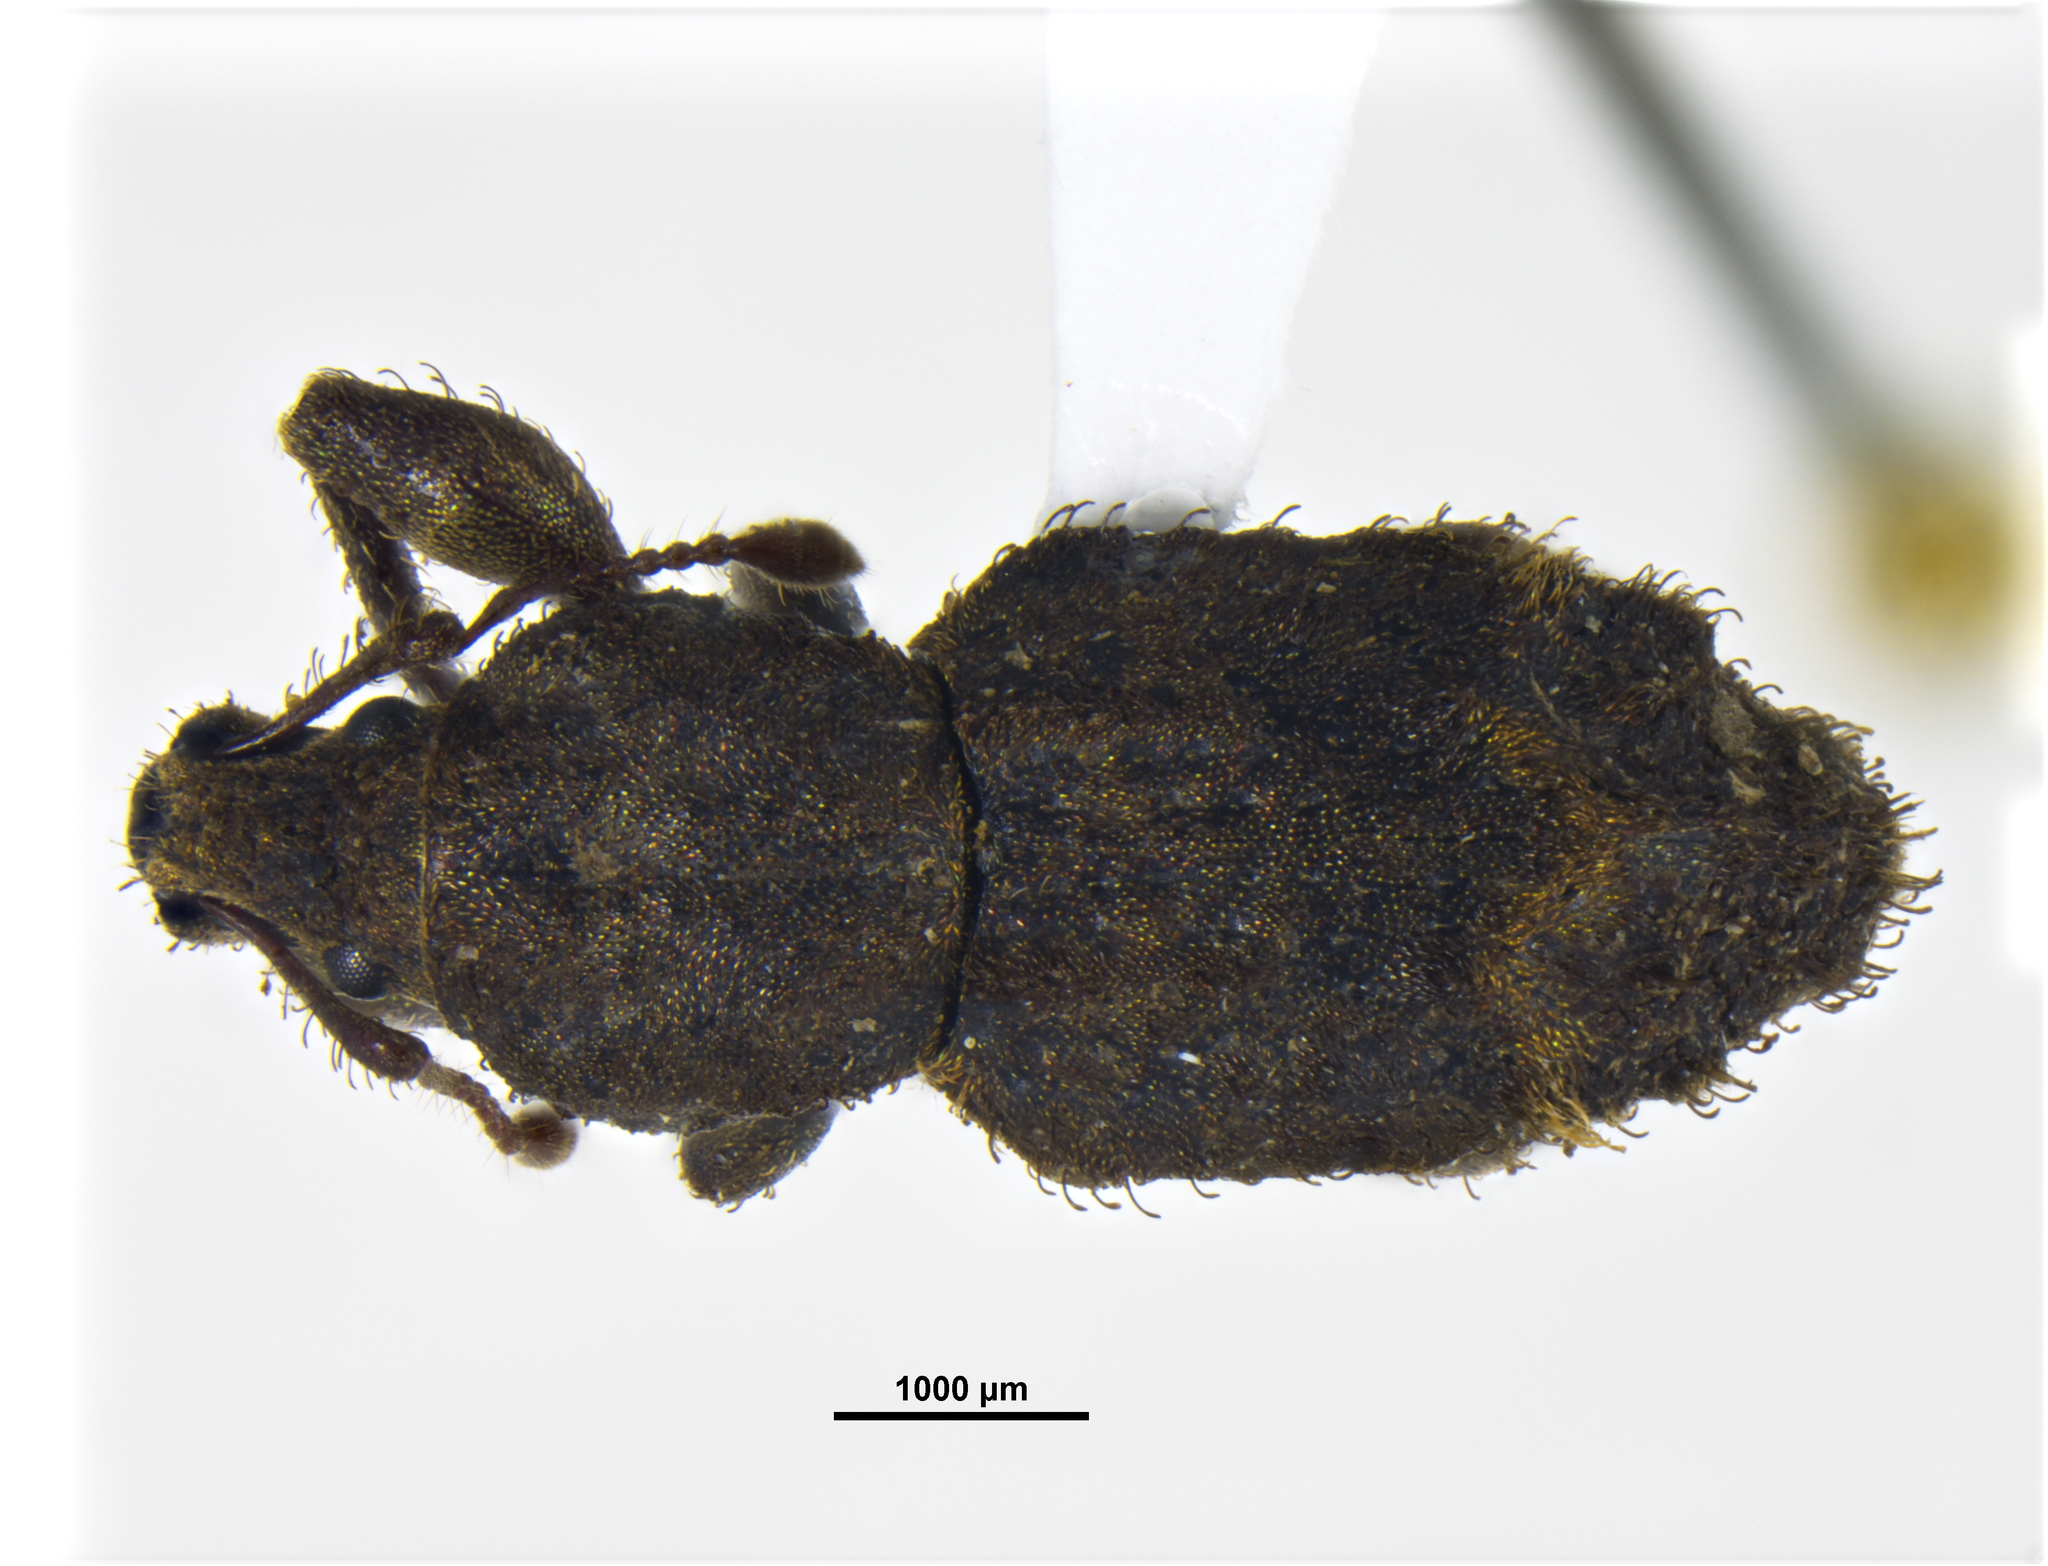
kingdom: Animalia
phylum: Arthropoda
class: Insecta
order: Coleoptera
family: Curculionidae
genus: Homodus
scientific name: Homodus fumeus
